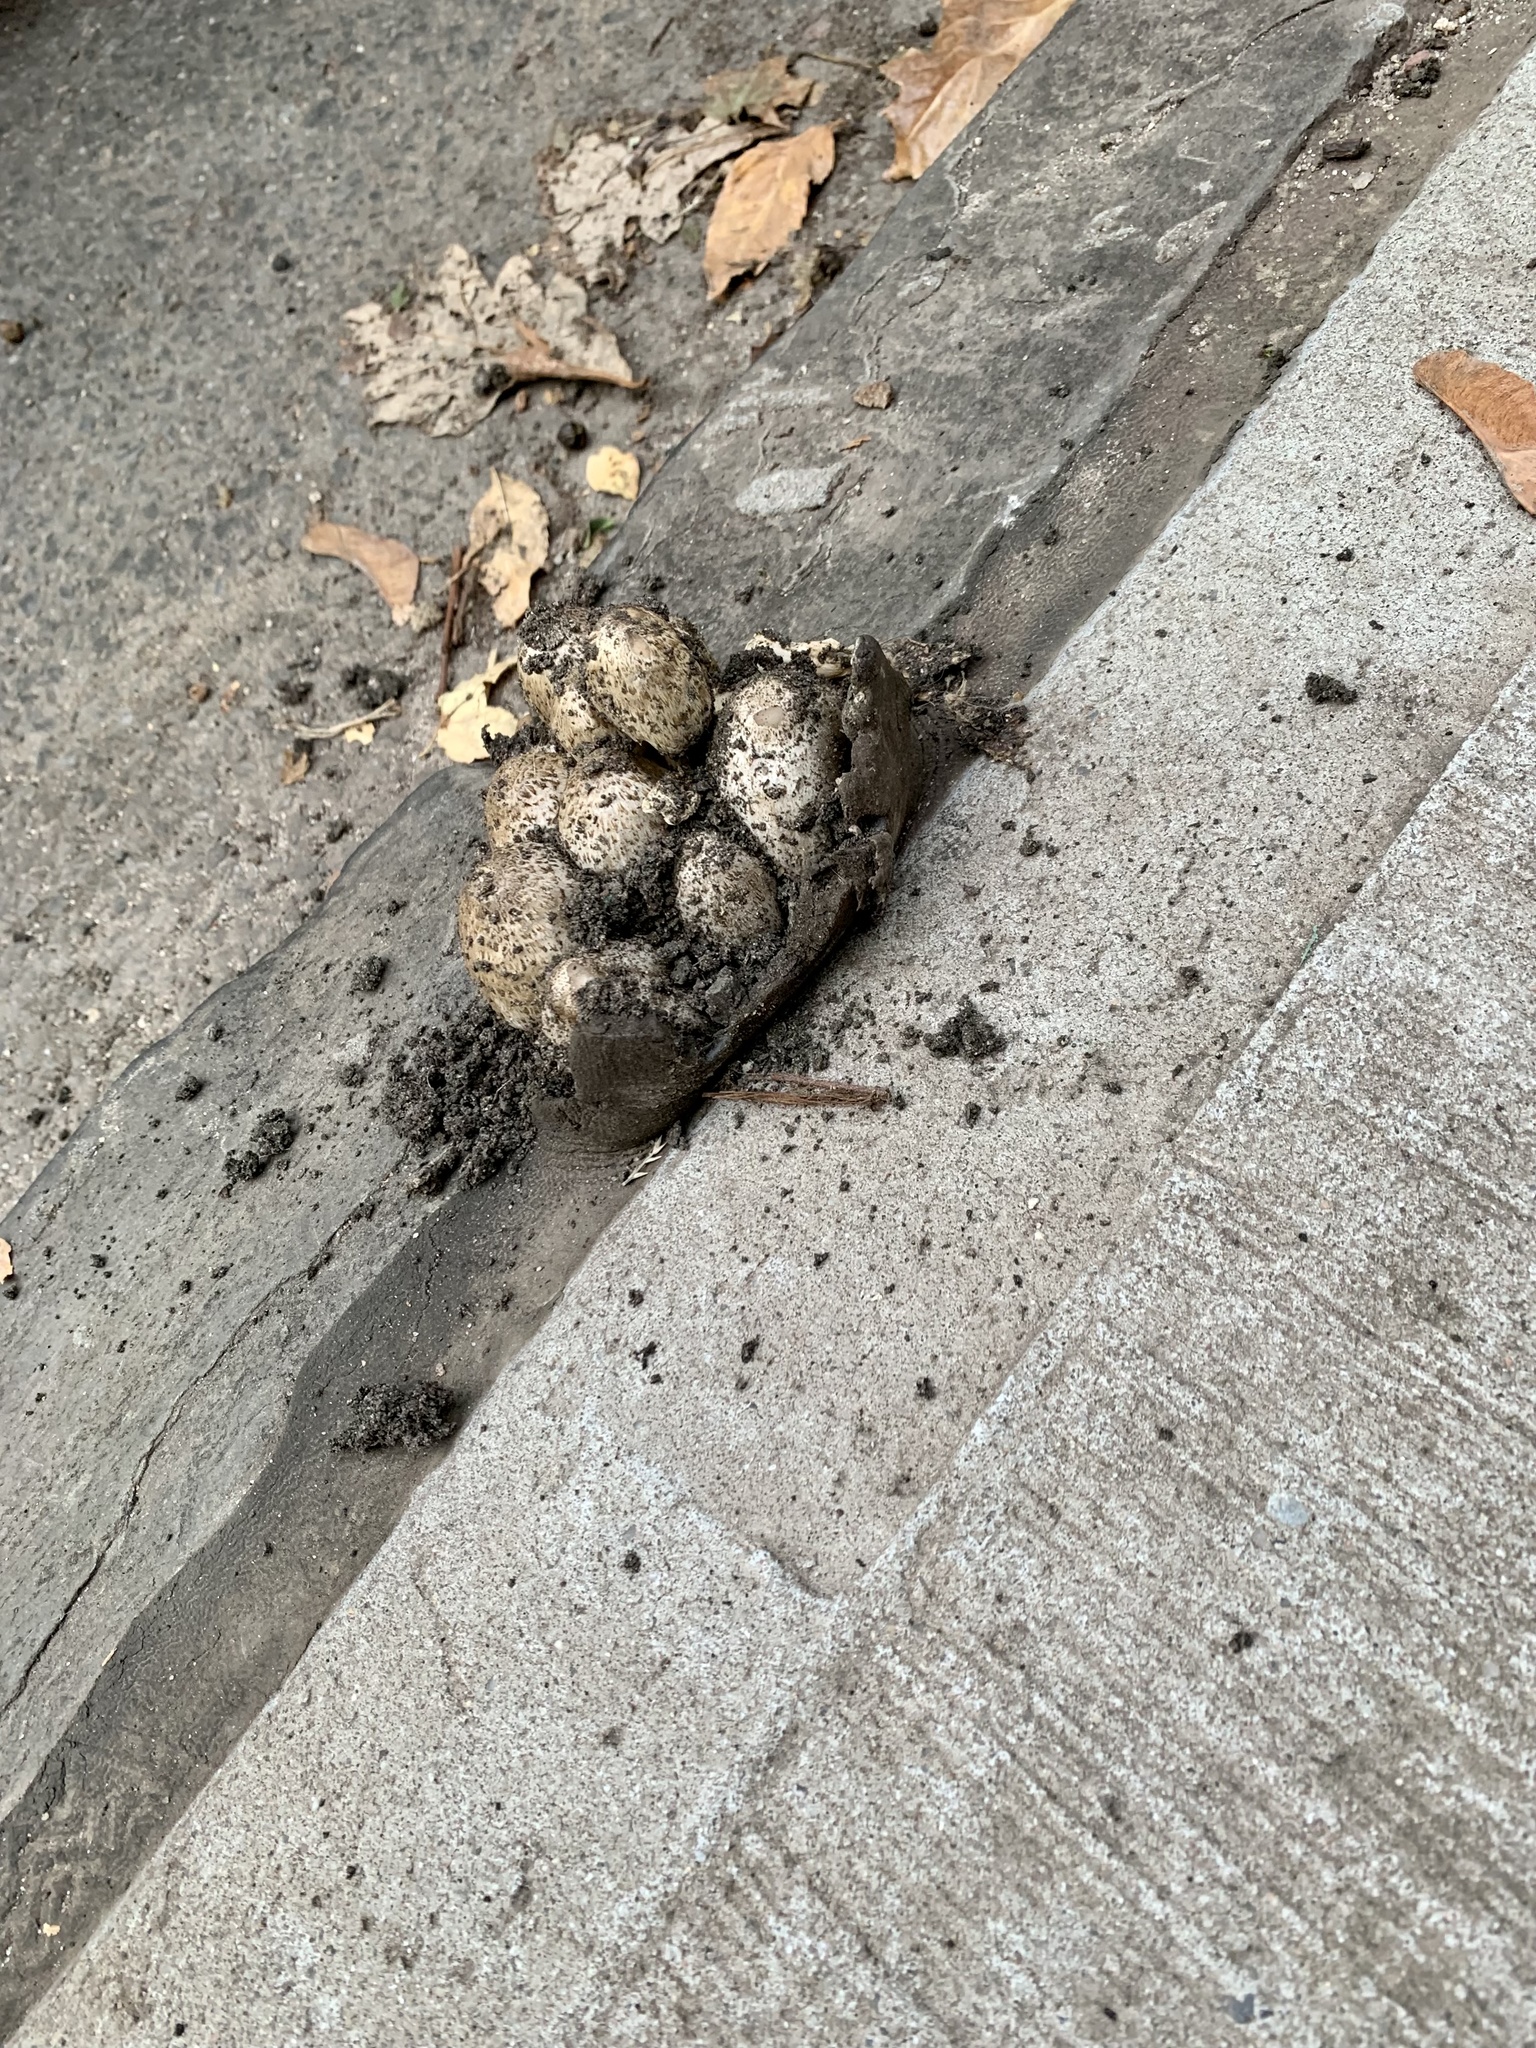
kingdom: Fungi
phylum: Basidiomycota
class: Agaricomycetes
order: Agaricales
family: Psathyrellaceae
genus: Coprinopsis
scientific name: Coprinopsis variegata
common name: Scaly ink cap
